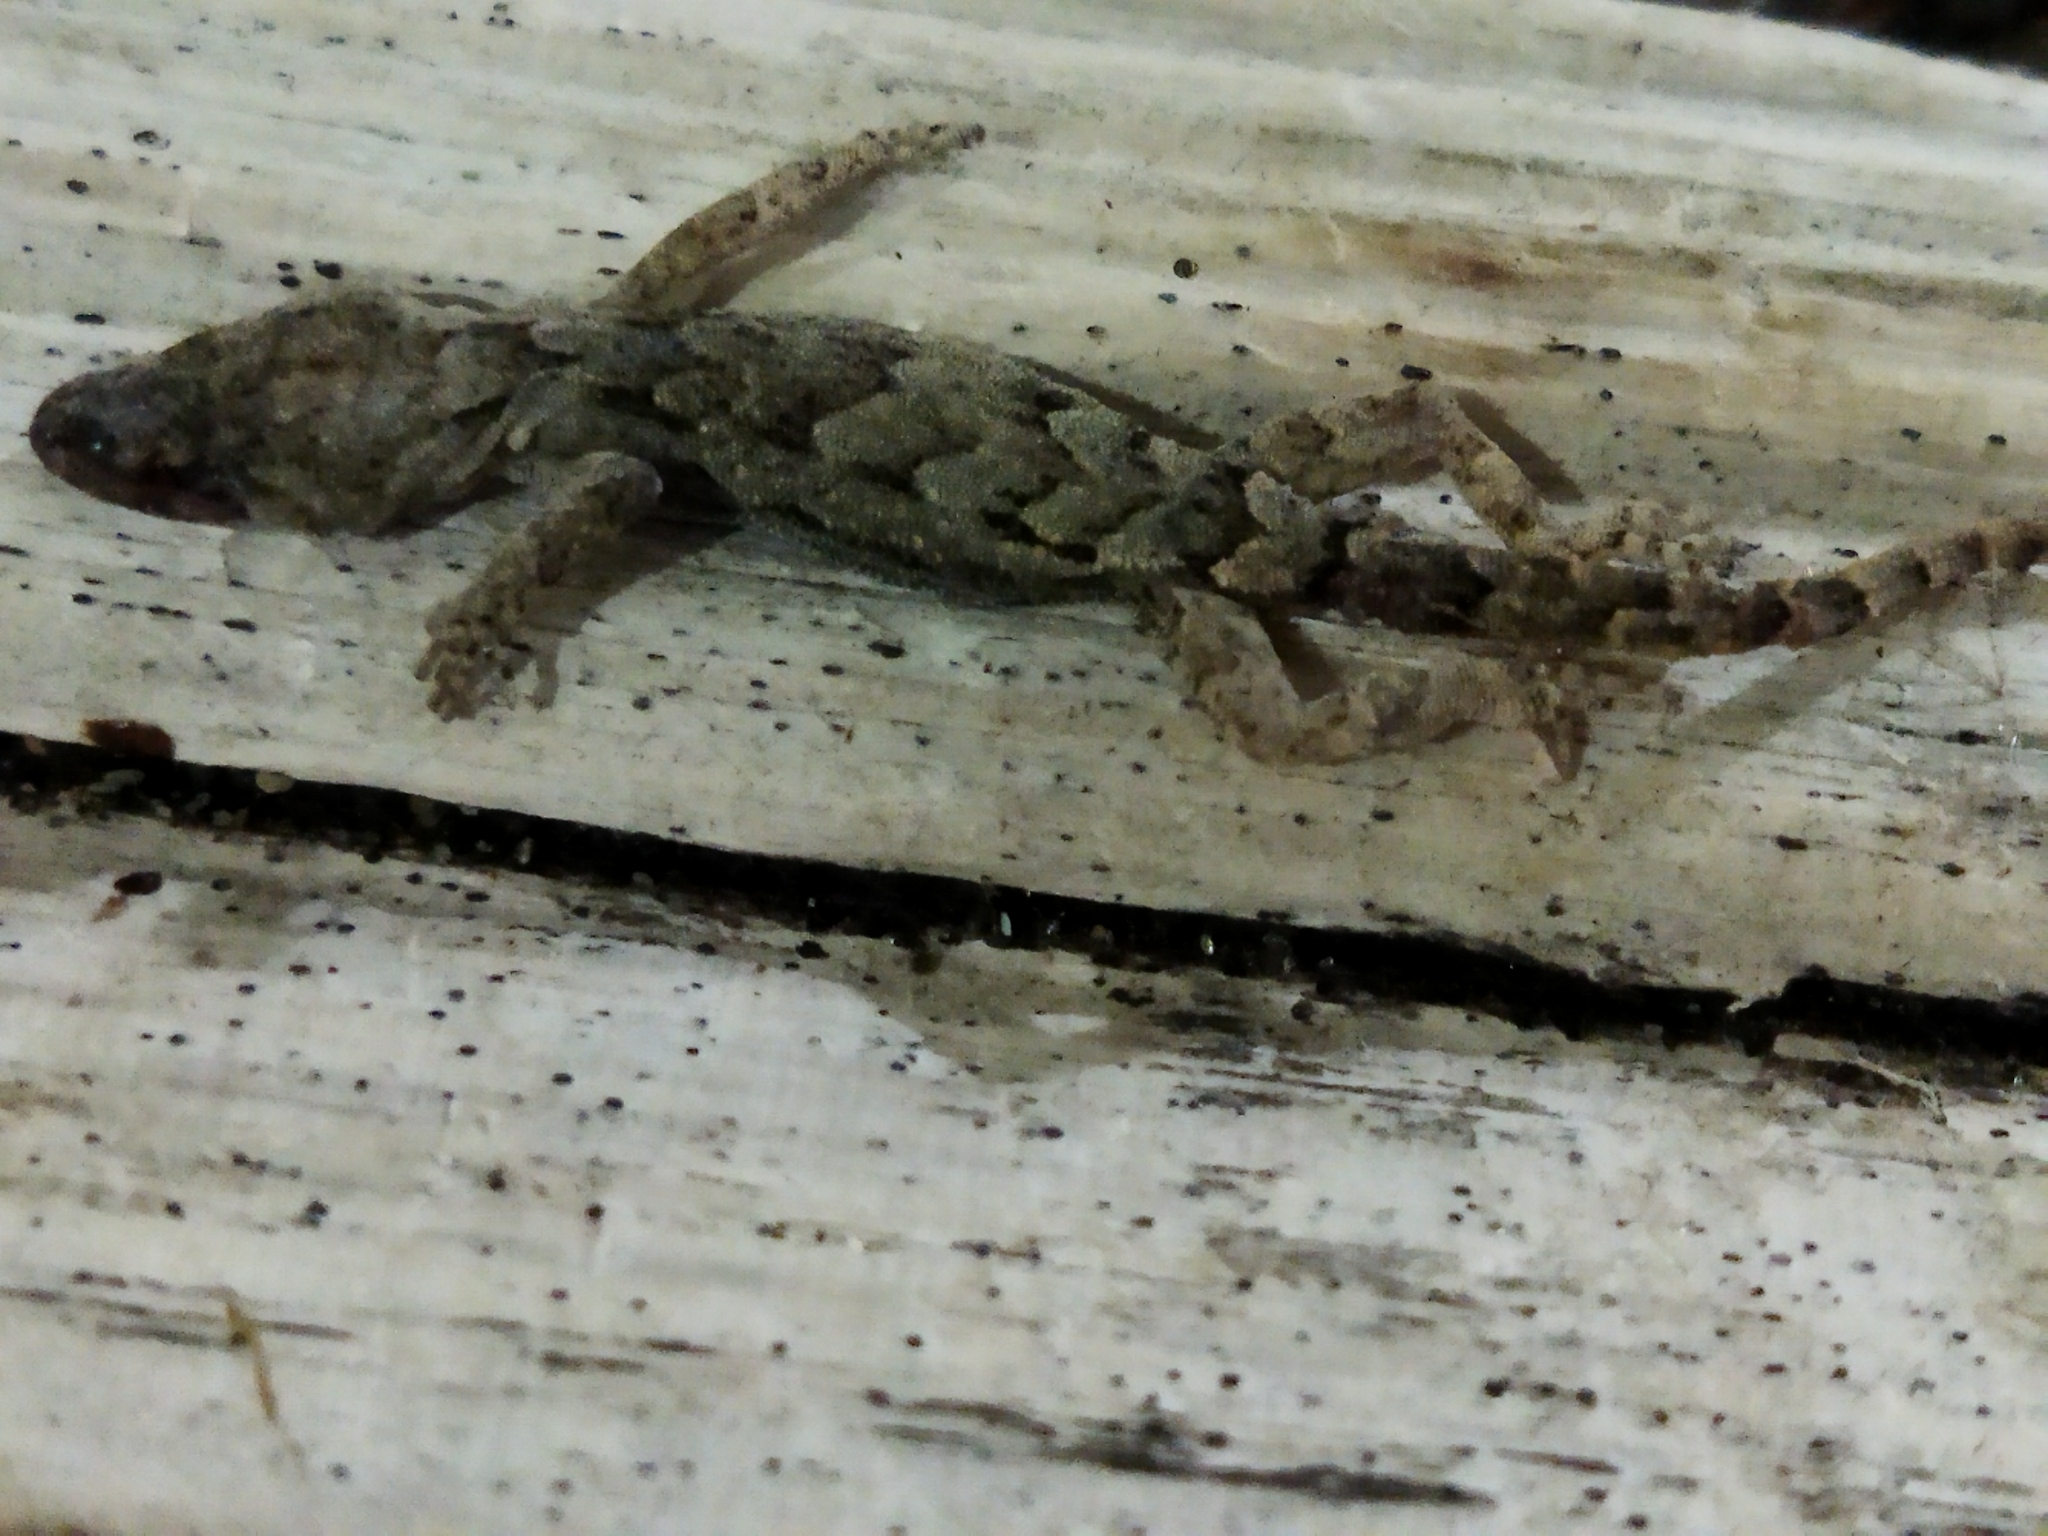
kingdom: Animalia
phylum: Chordata
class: Squamata
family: Gekkonidae
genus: Mediodactylus
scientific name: Mediodactylus kotschyi
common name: Kotschy's gecko
